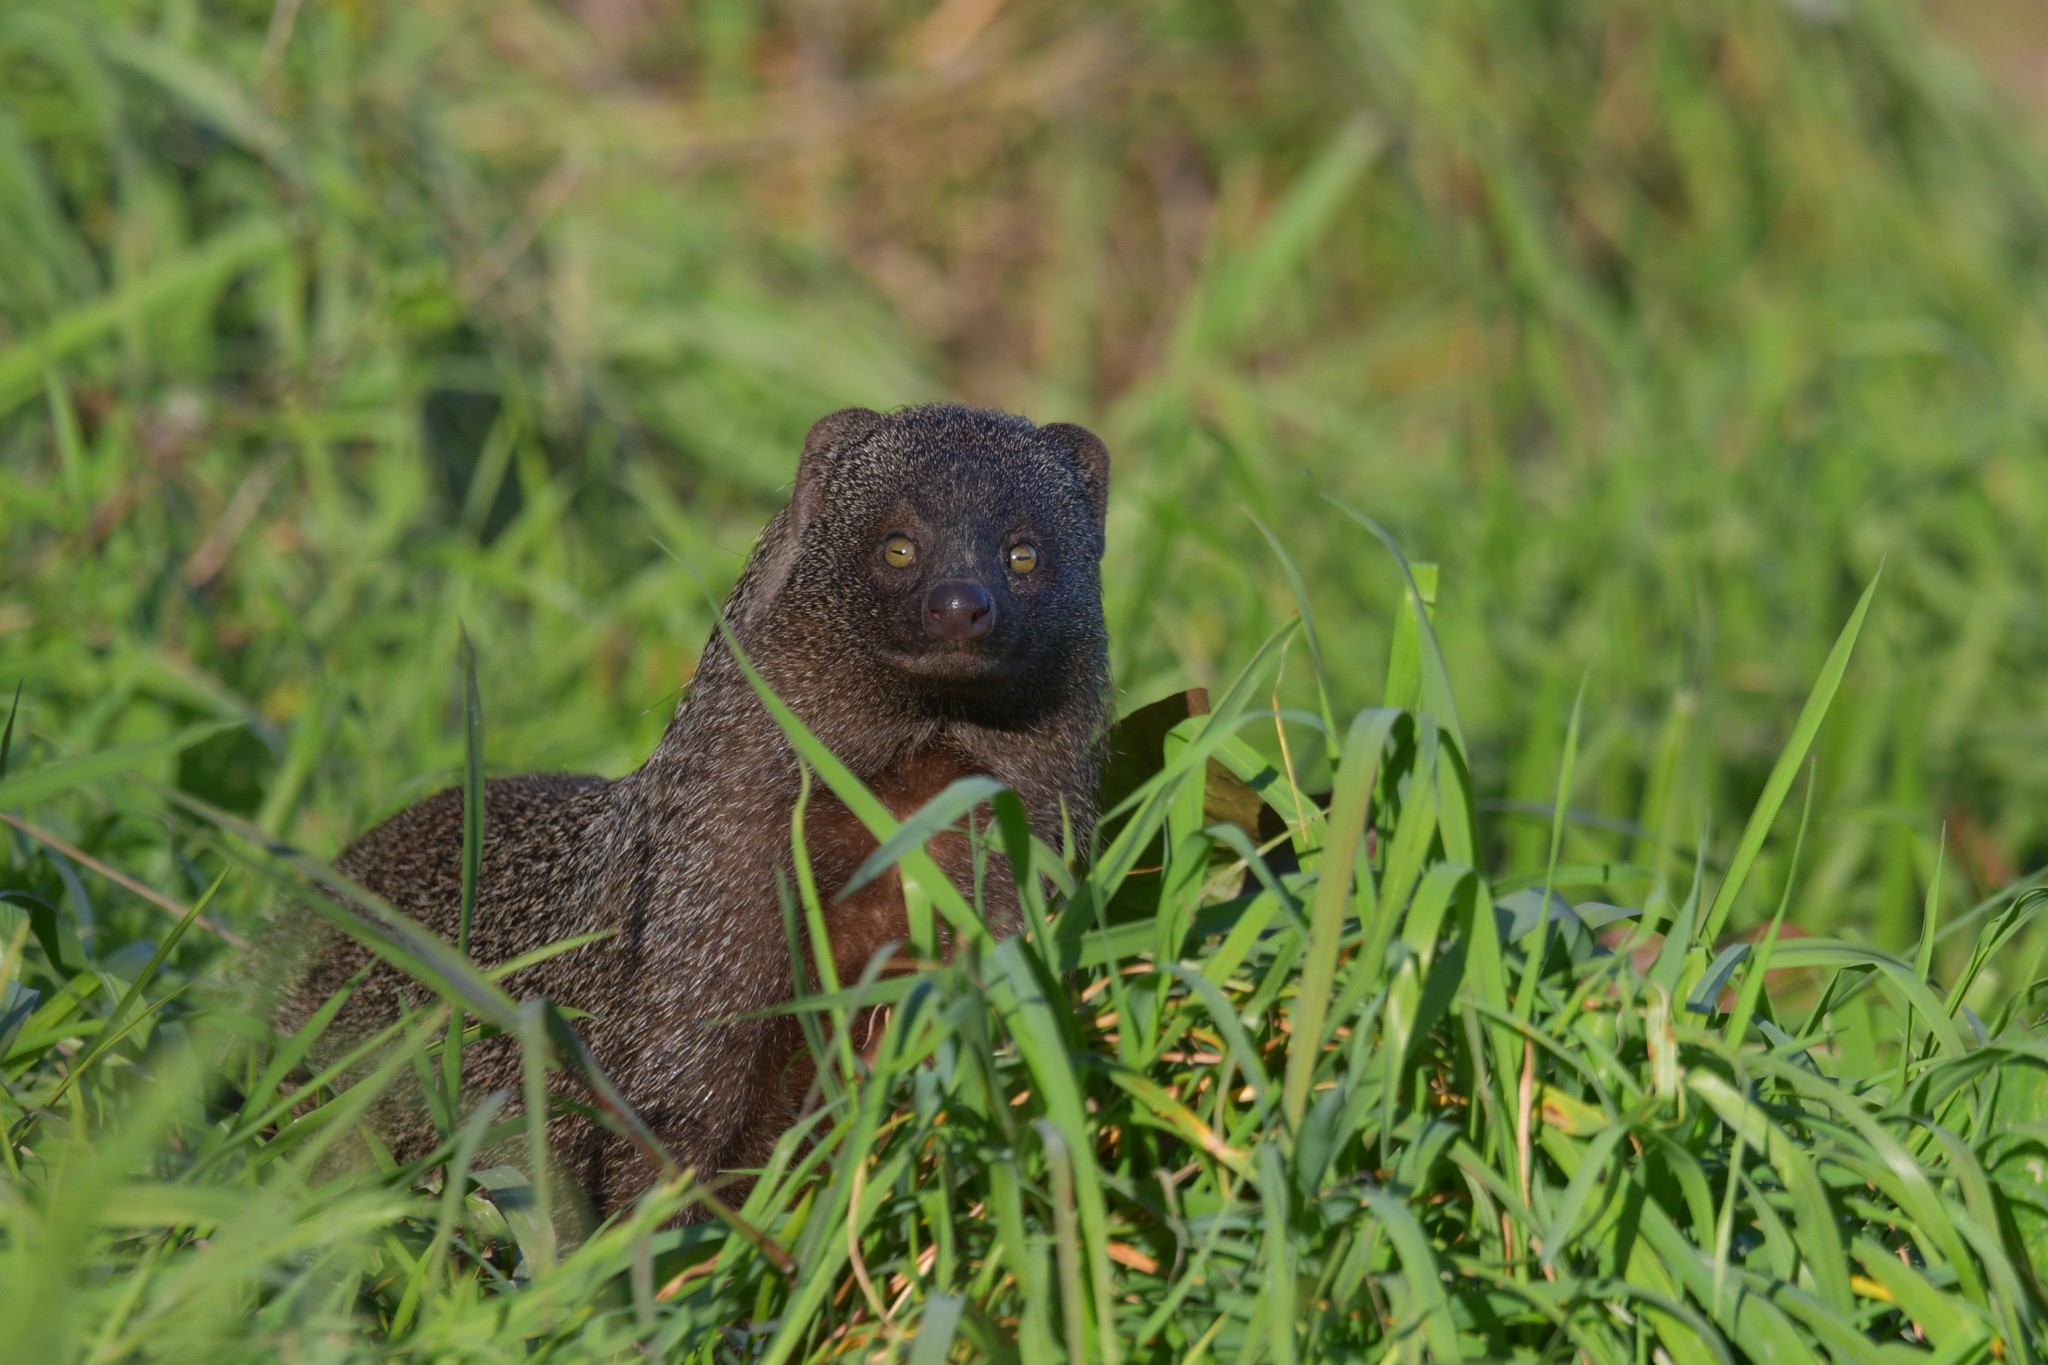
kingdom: Animalia
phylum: Chordata
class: Mammalia
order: Carnivora
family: Herpestidae
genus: Herpestes
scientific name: Herpestes ichneumon
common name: Egyptian mongoose
